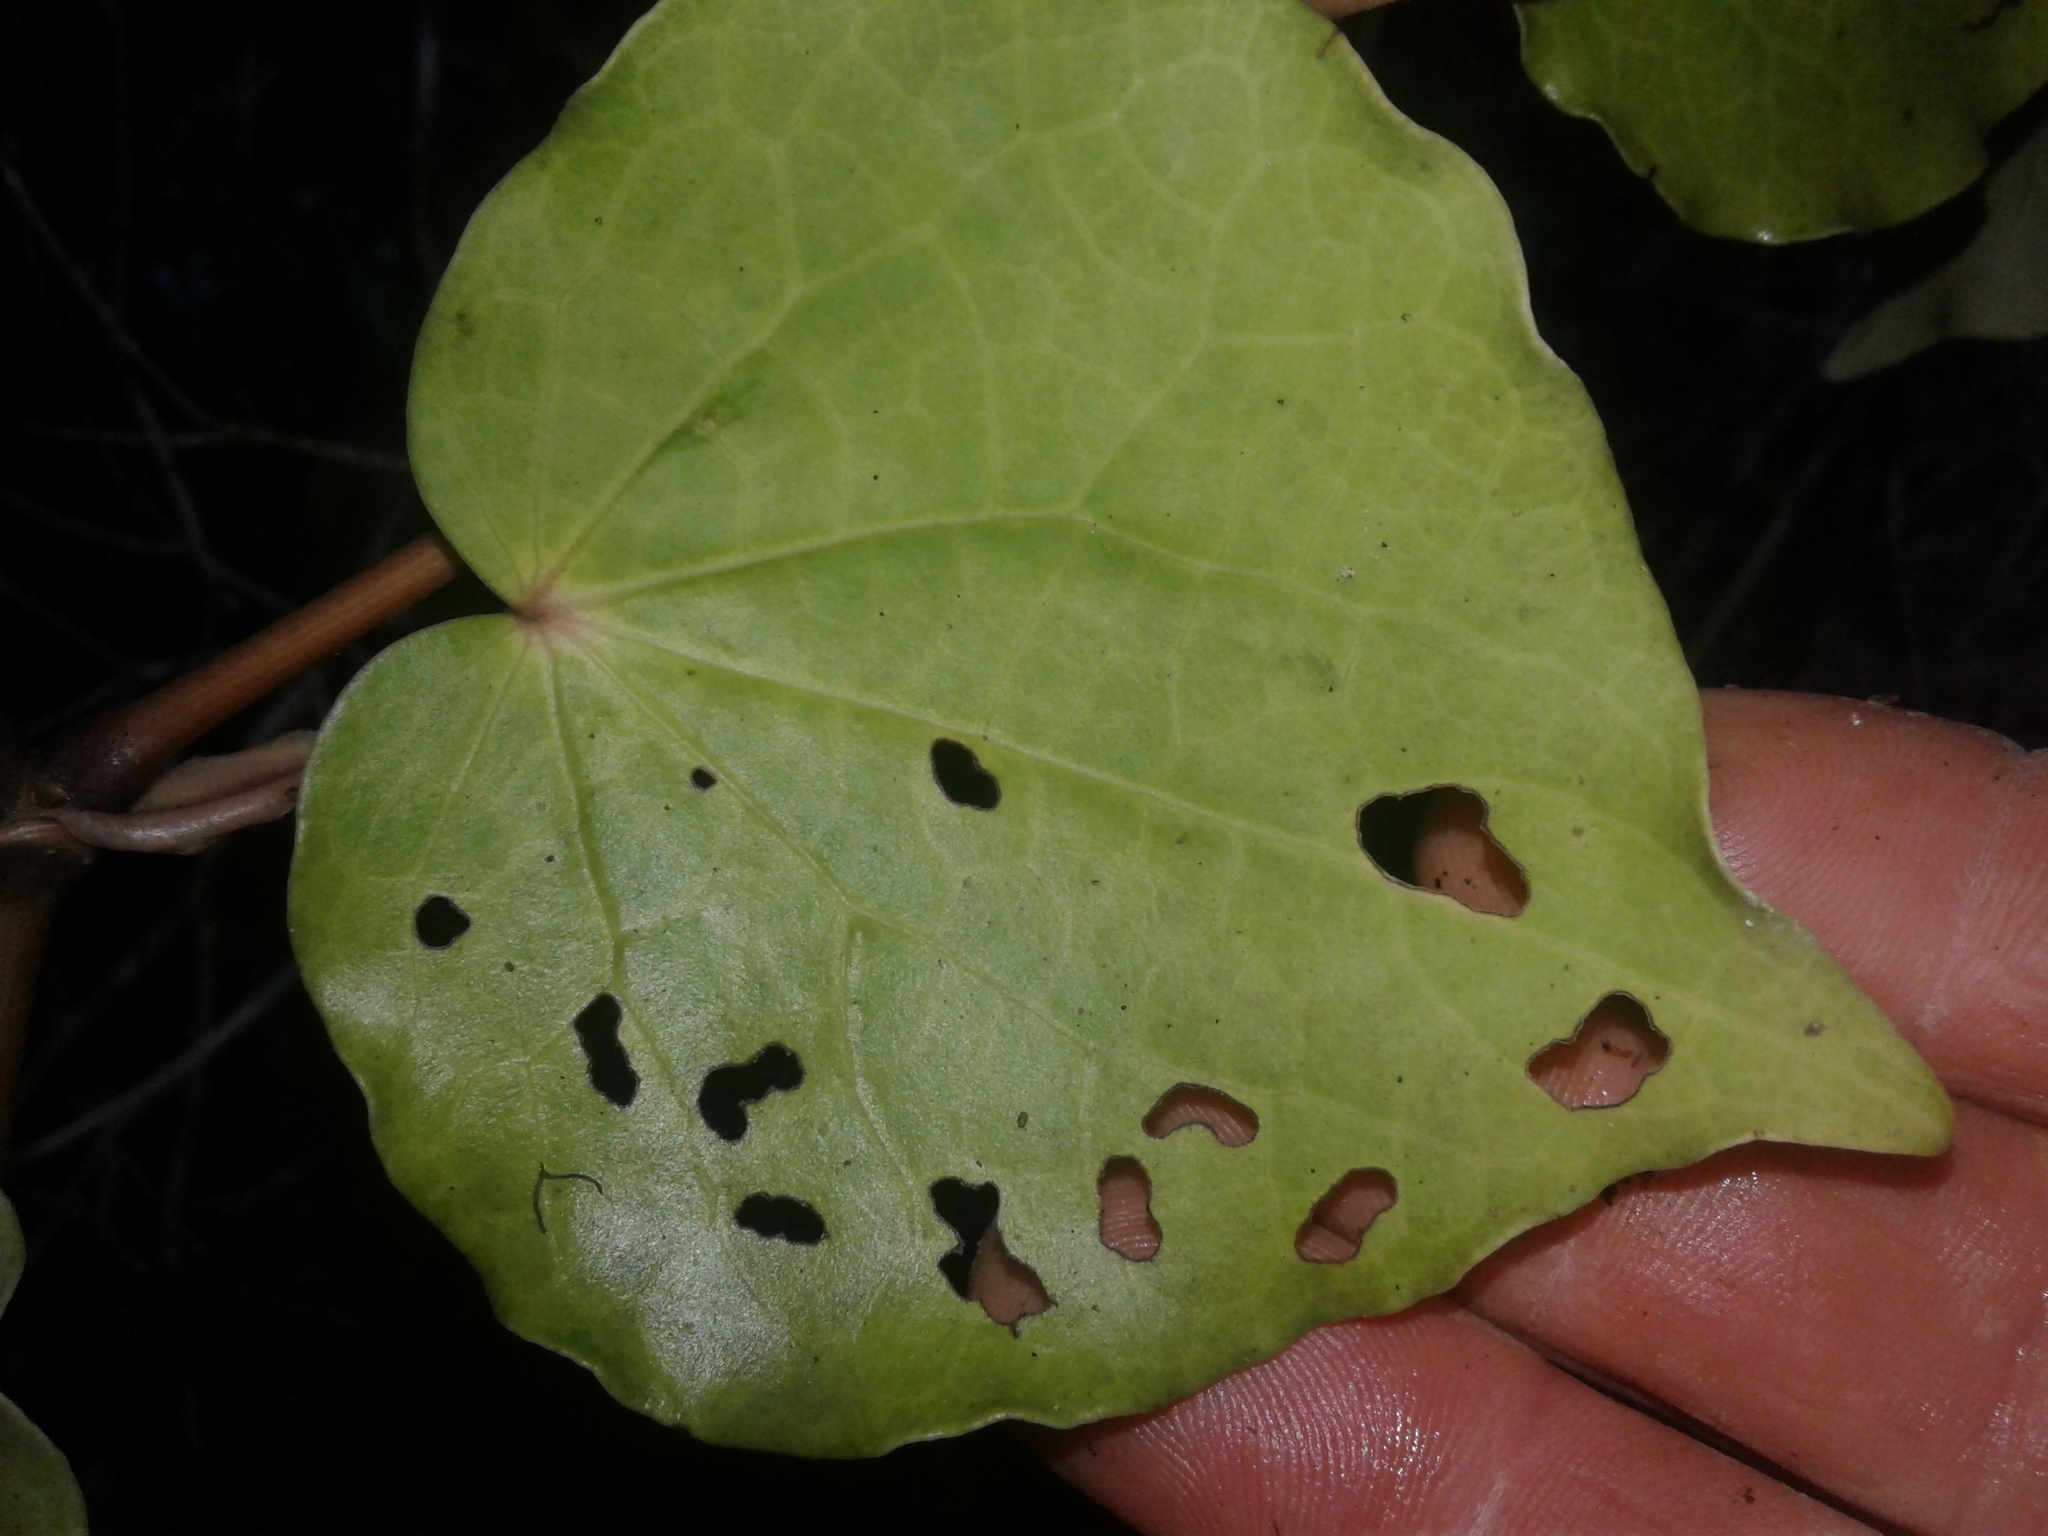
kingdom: Plantae
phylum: Tracheophyta
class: Magnoliopsida
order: Piperales
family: Piperaceae
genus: Macropiper
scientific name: Macropiper excelsum
